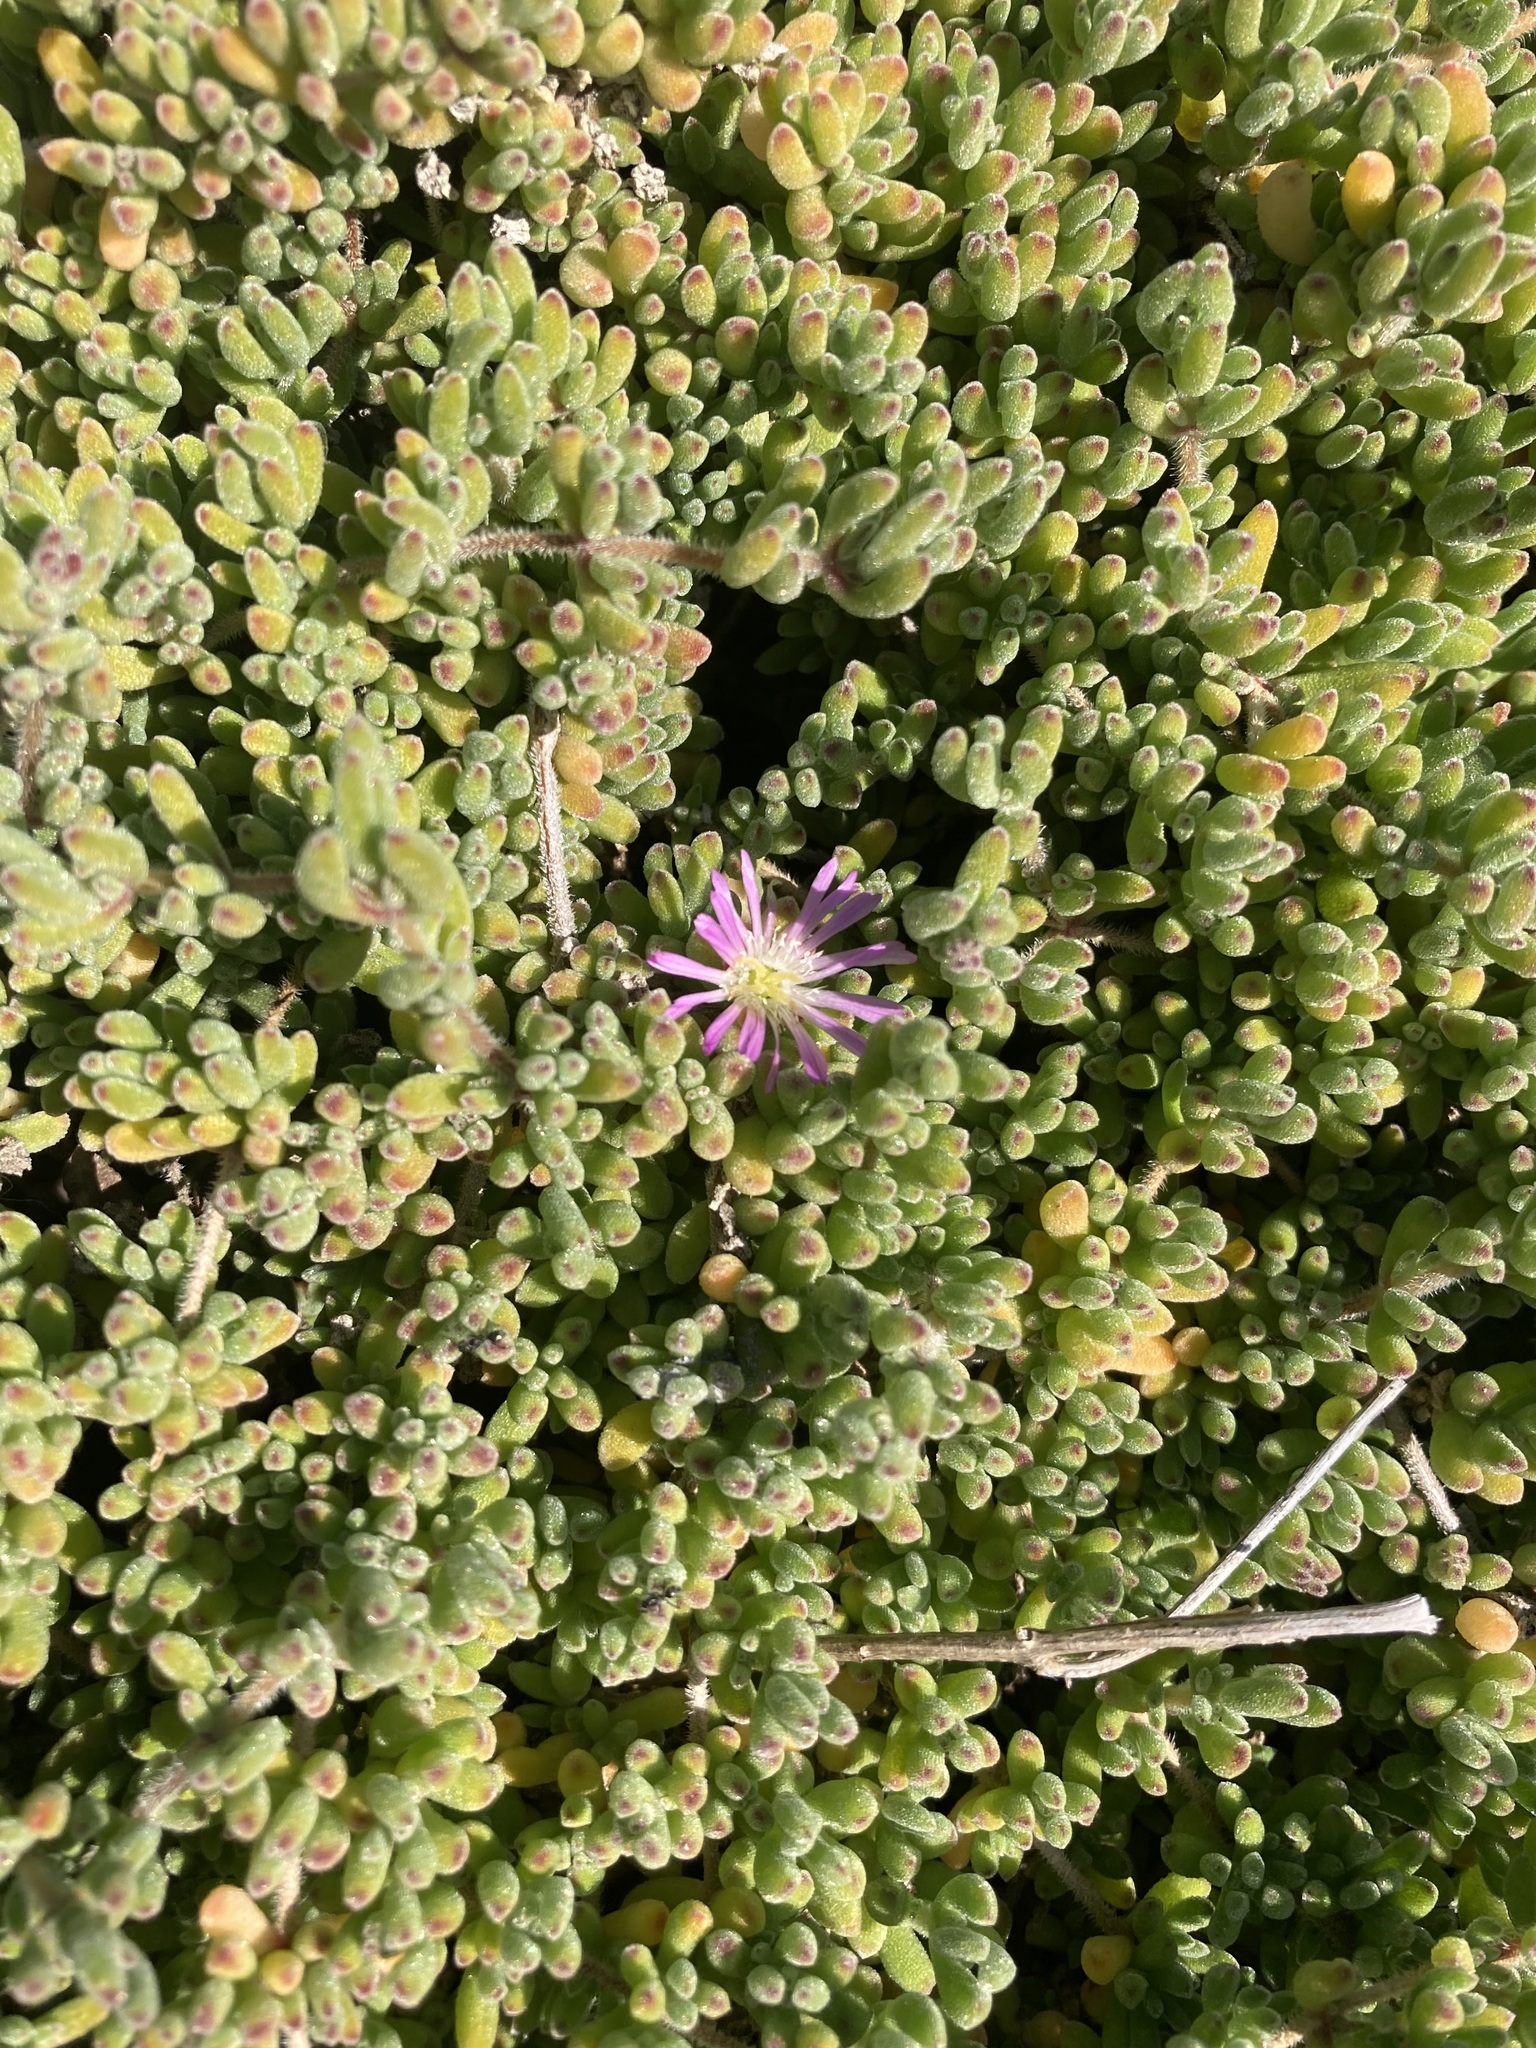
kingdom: Plantae
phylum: Tracheophyta
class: Magnoliopsida
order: Caryophyllales
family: Aizoaceae
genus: Drosanthemum
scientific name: Drosanthemum floribundum
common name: Pale dewplant
